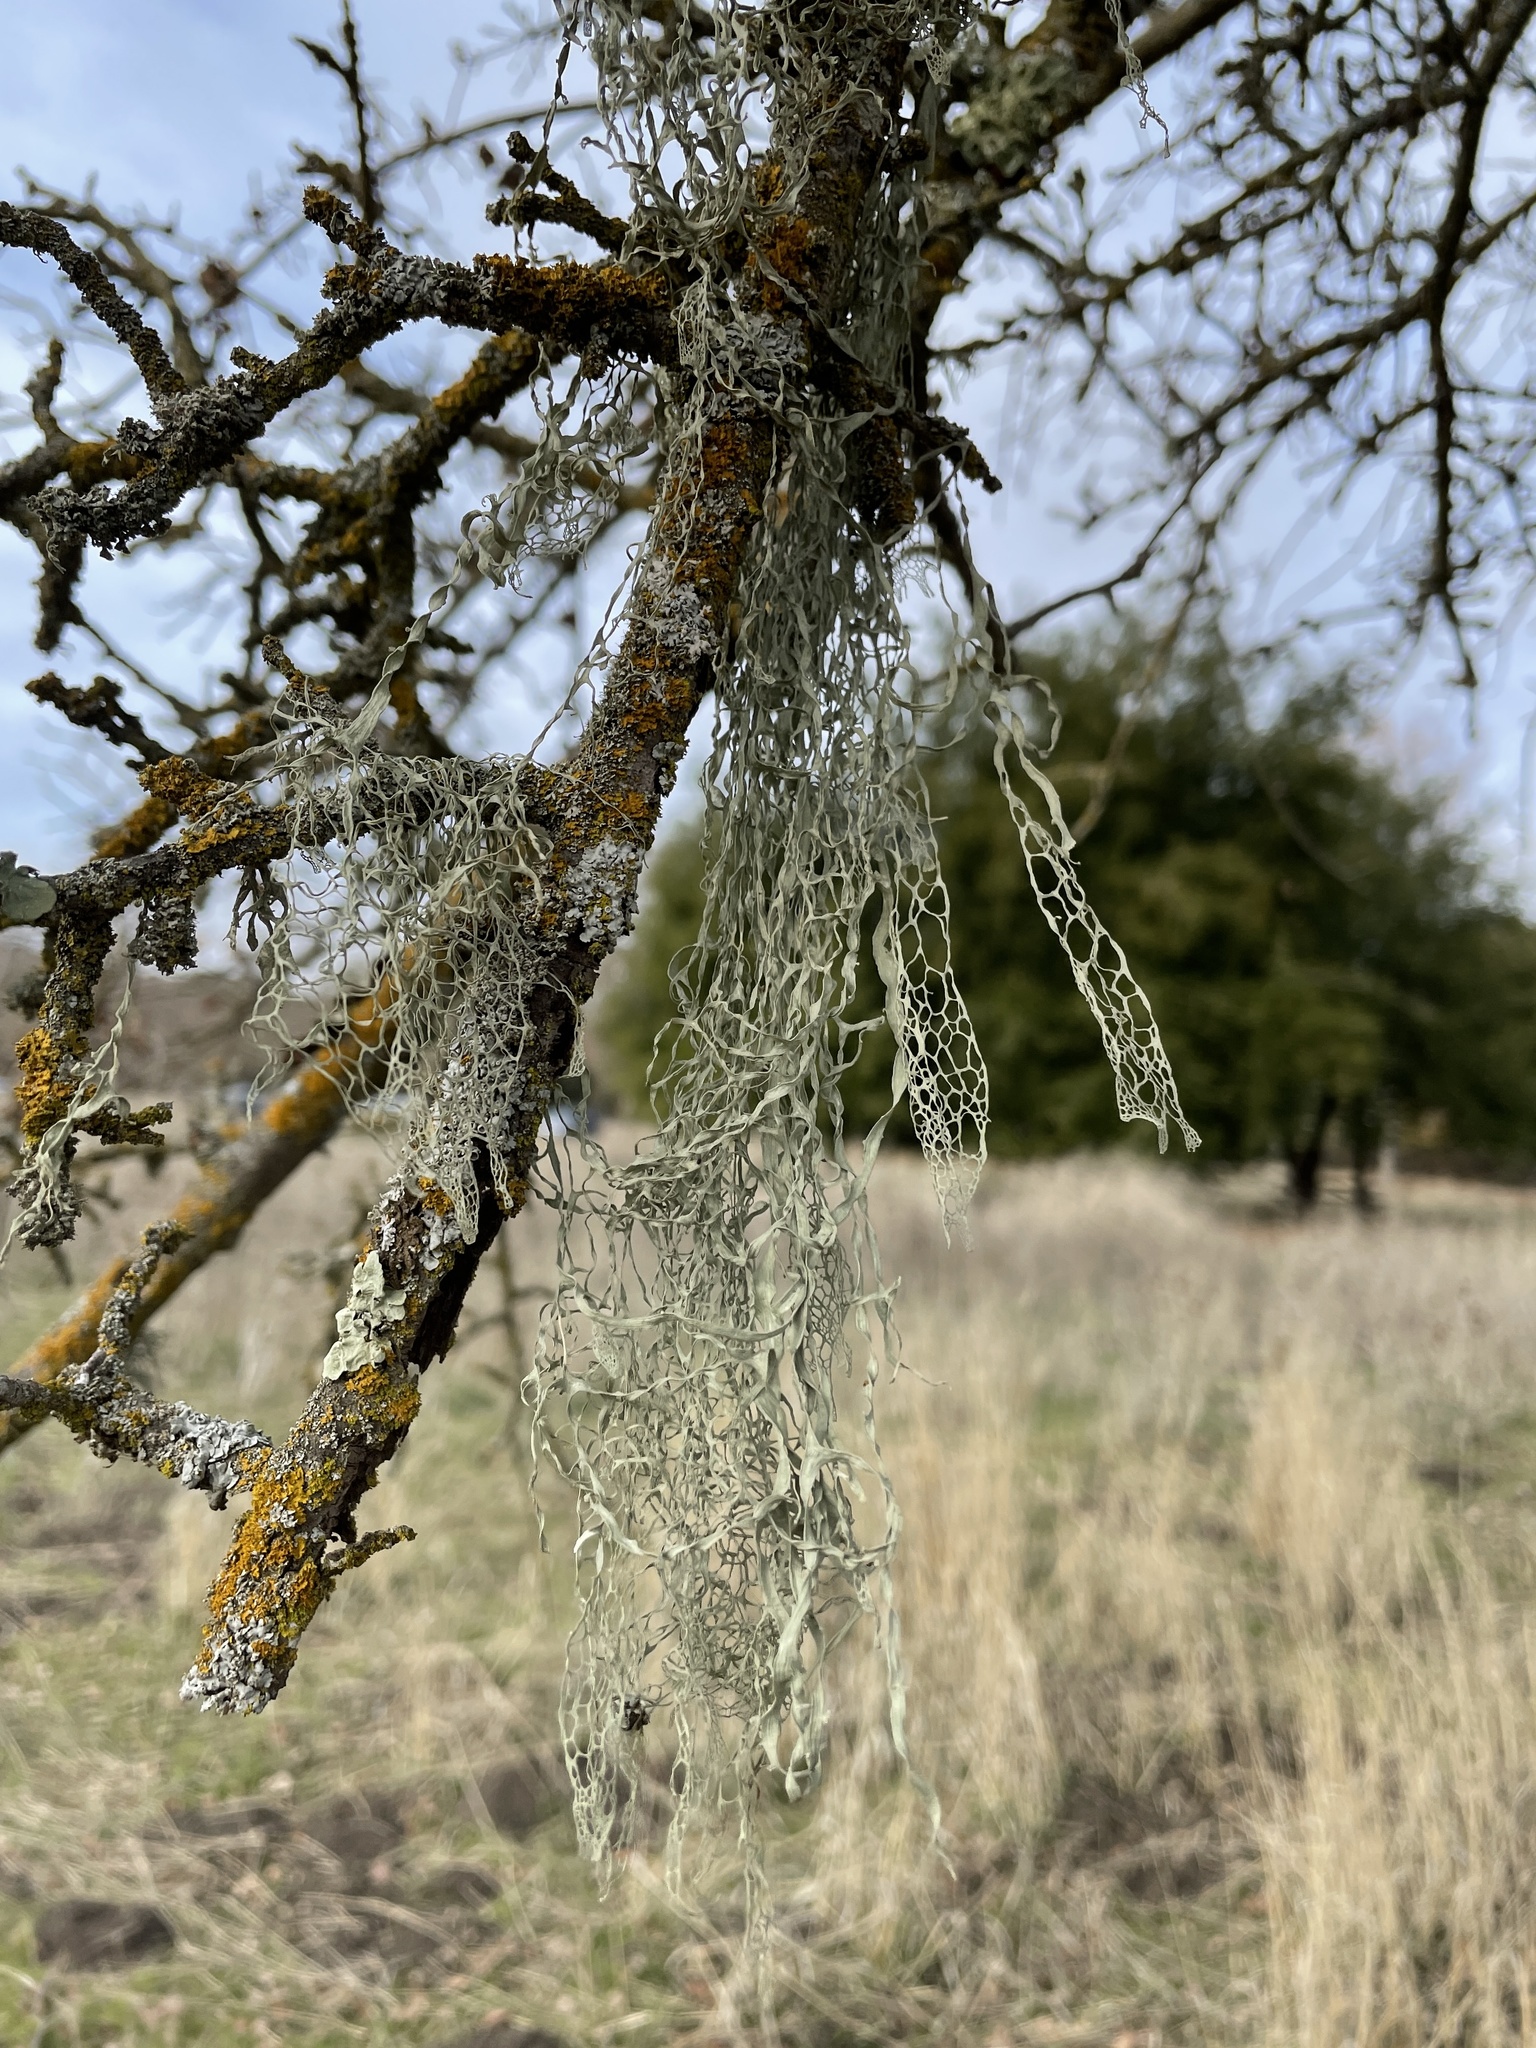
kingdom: Fungi
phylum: Ascomycota
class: Lecanoromycetes
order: Lecanorales
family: Ramalinaceae
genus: Ramalina
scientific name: Ramalina menziesii
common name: Lace lichen
